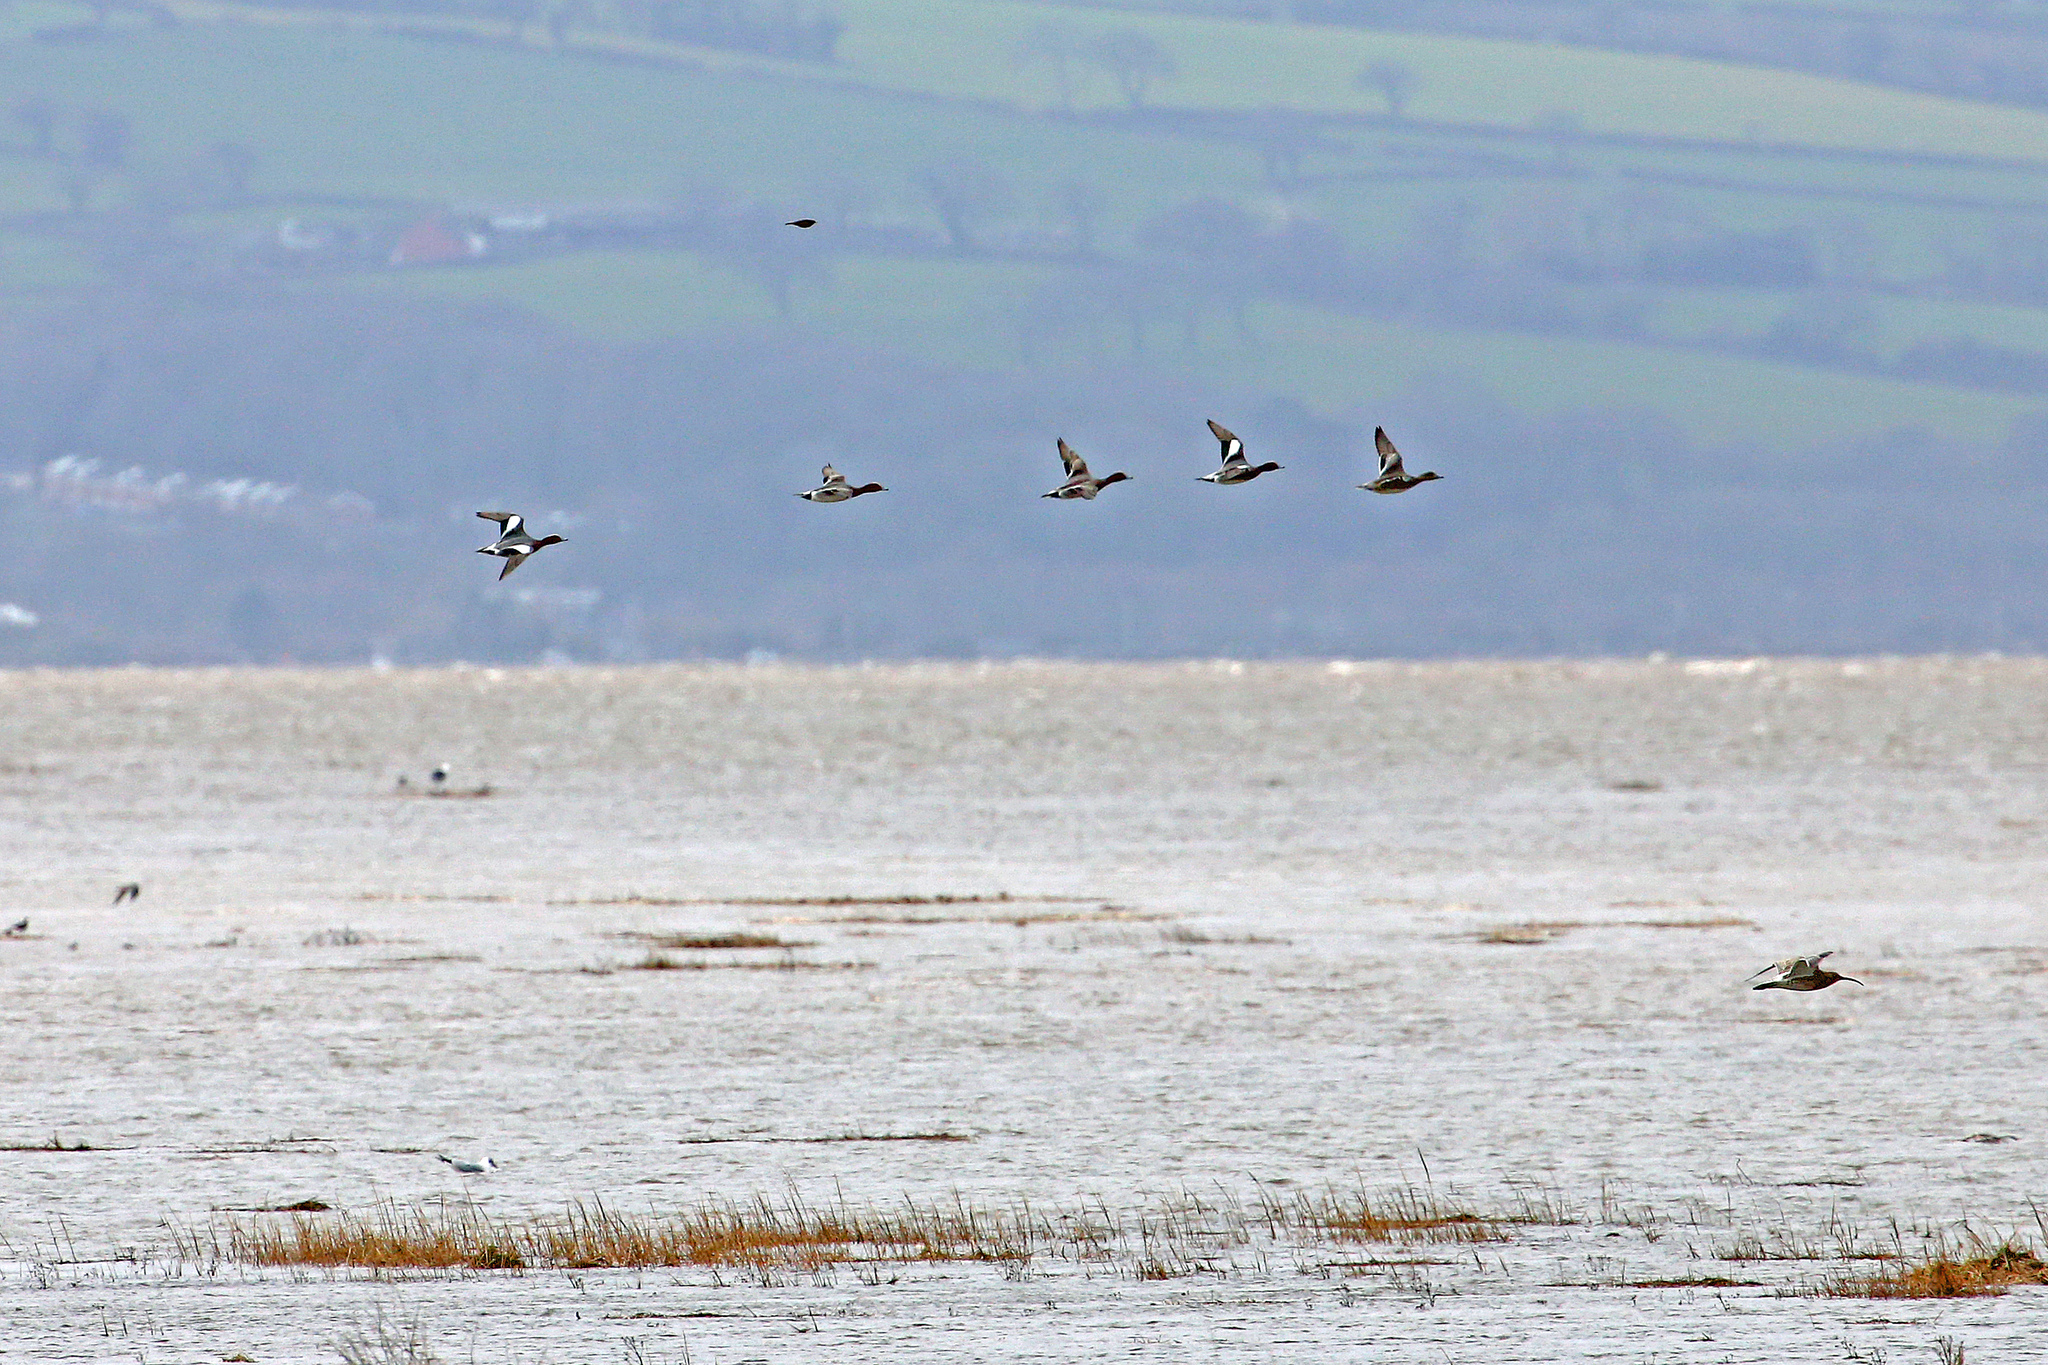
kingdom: Animalia
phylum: Chordata
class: Aves
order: Anseriformes
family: Anatidae
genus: Mareca
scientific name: Mareca penelope
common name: Eurasian wigeon
